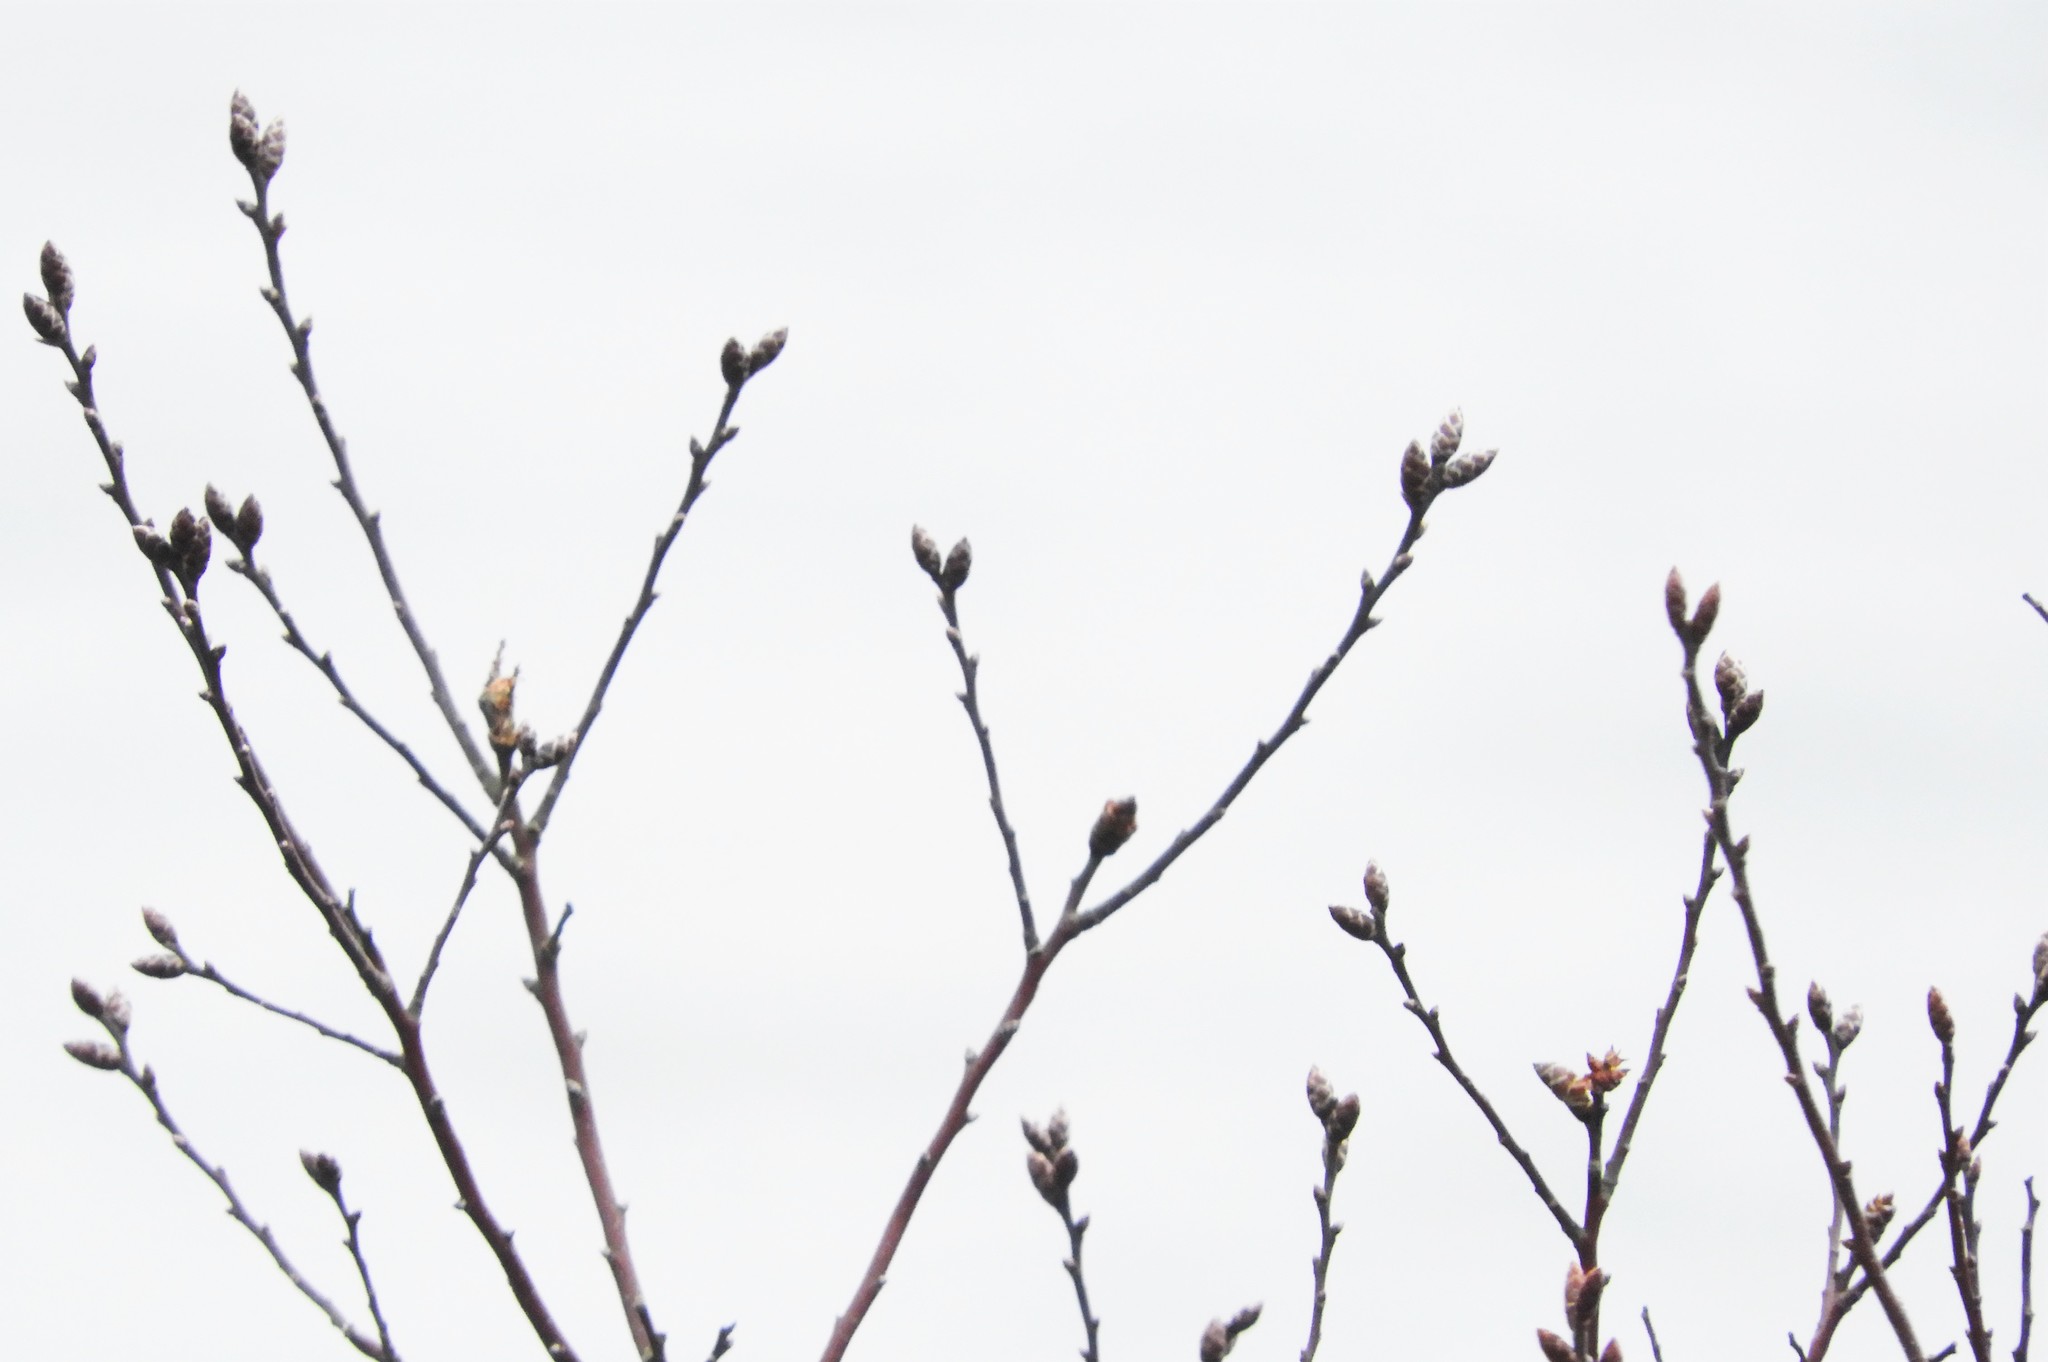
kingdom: Plantae
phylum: Tracheophyta
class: Magnoliopsida
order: Fagales
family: Myricaceae
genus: Myrica
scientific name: Myrica gale
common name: Sweet gale
